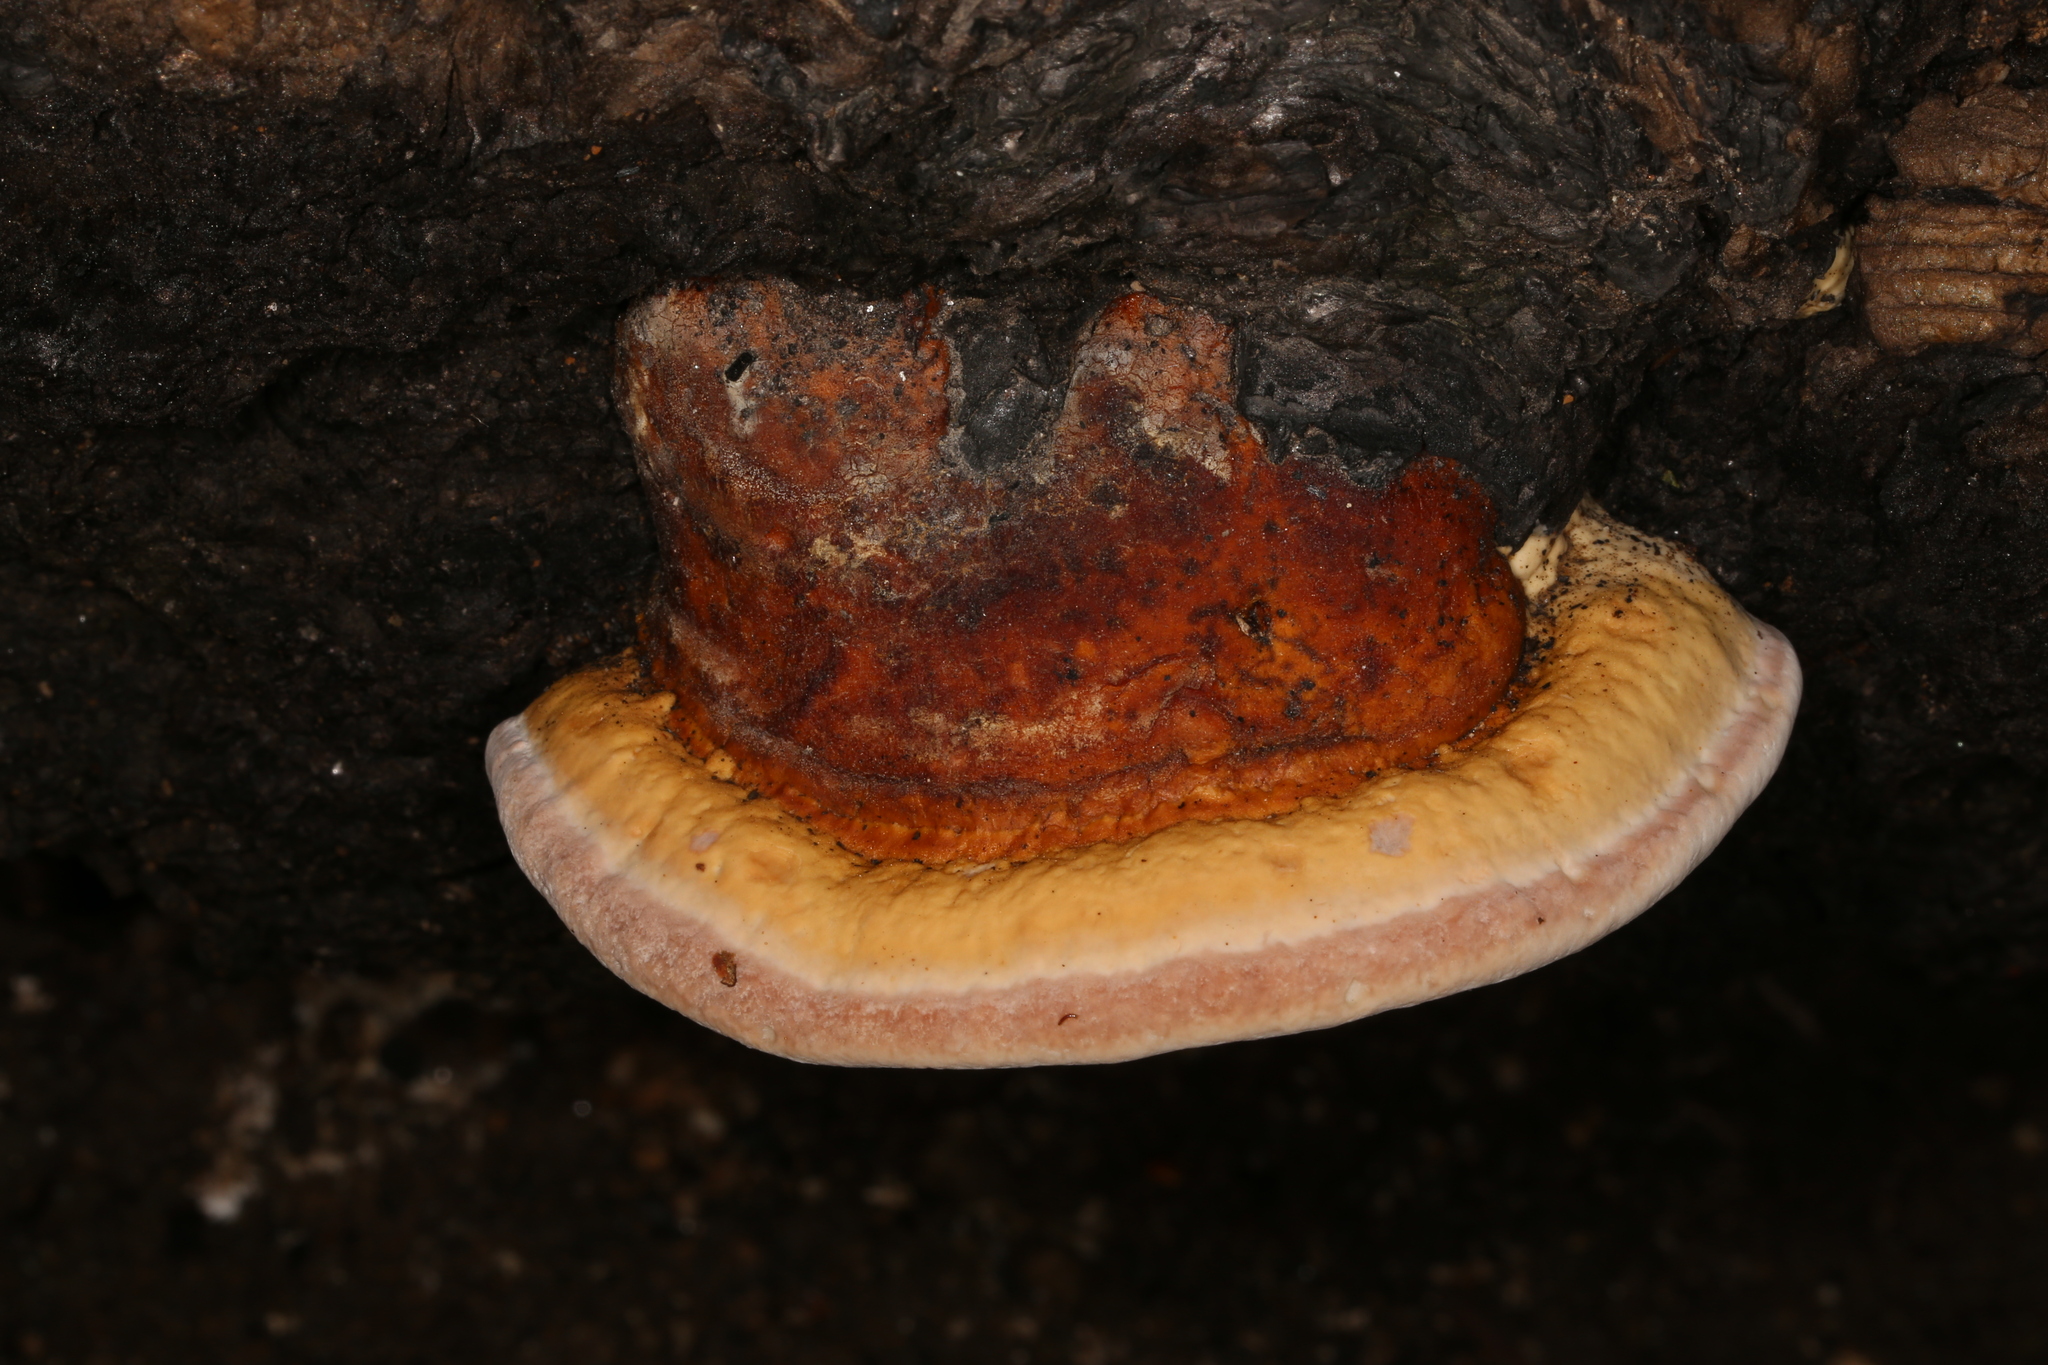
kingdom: Fungi
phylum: Basidiomycota
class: Agaricomycetes
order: Polyporales
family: Fomitopsidaceae
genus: Fomitopsis
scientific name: Fomitopsis schrenkii
